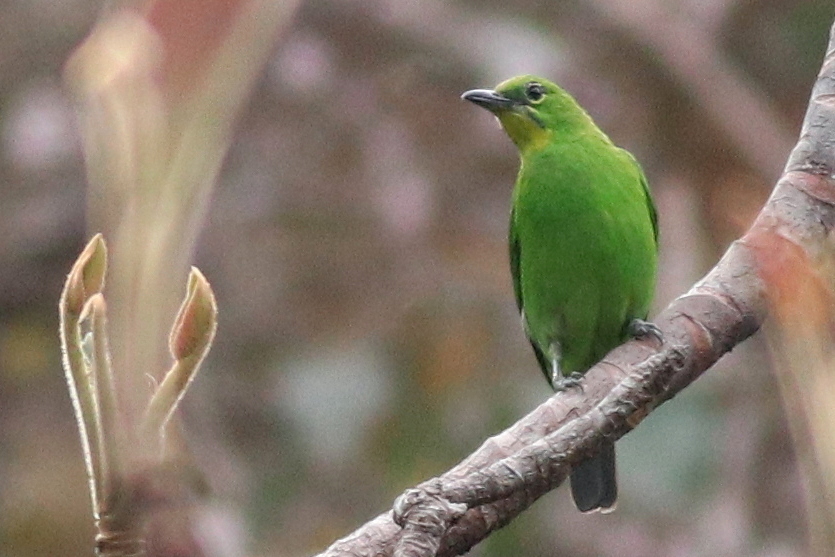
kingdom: Animalia
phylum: Chordata
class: Aves
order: Passeriformes
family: Chloropseidae
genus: Chloropsis
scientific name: Chloropsis sonnerati
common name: Greater green leafbird
